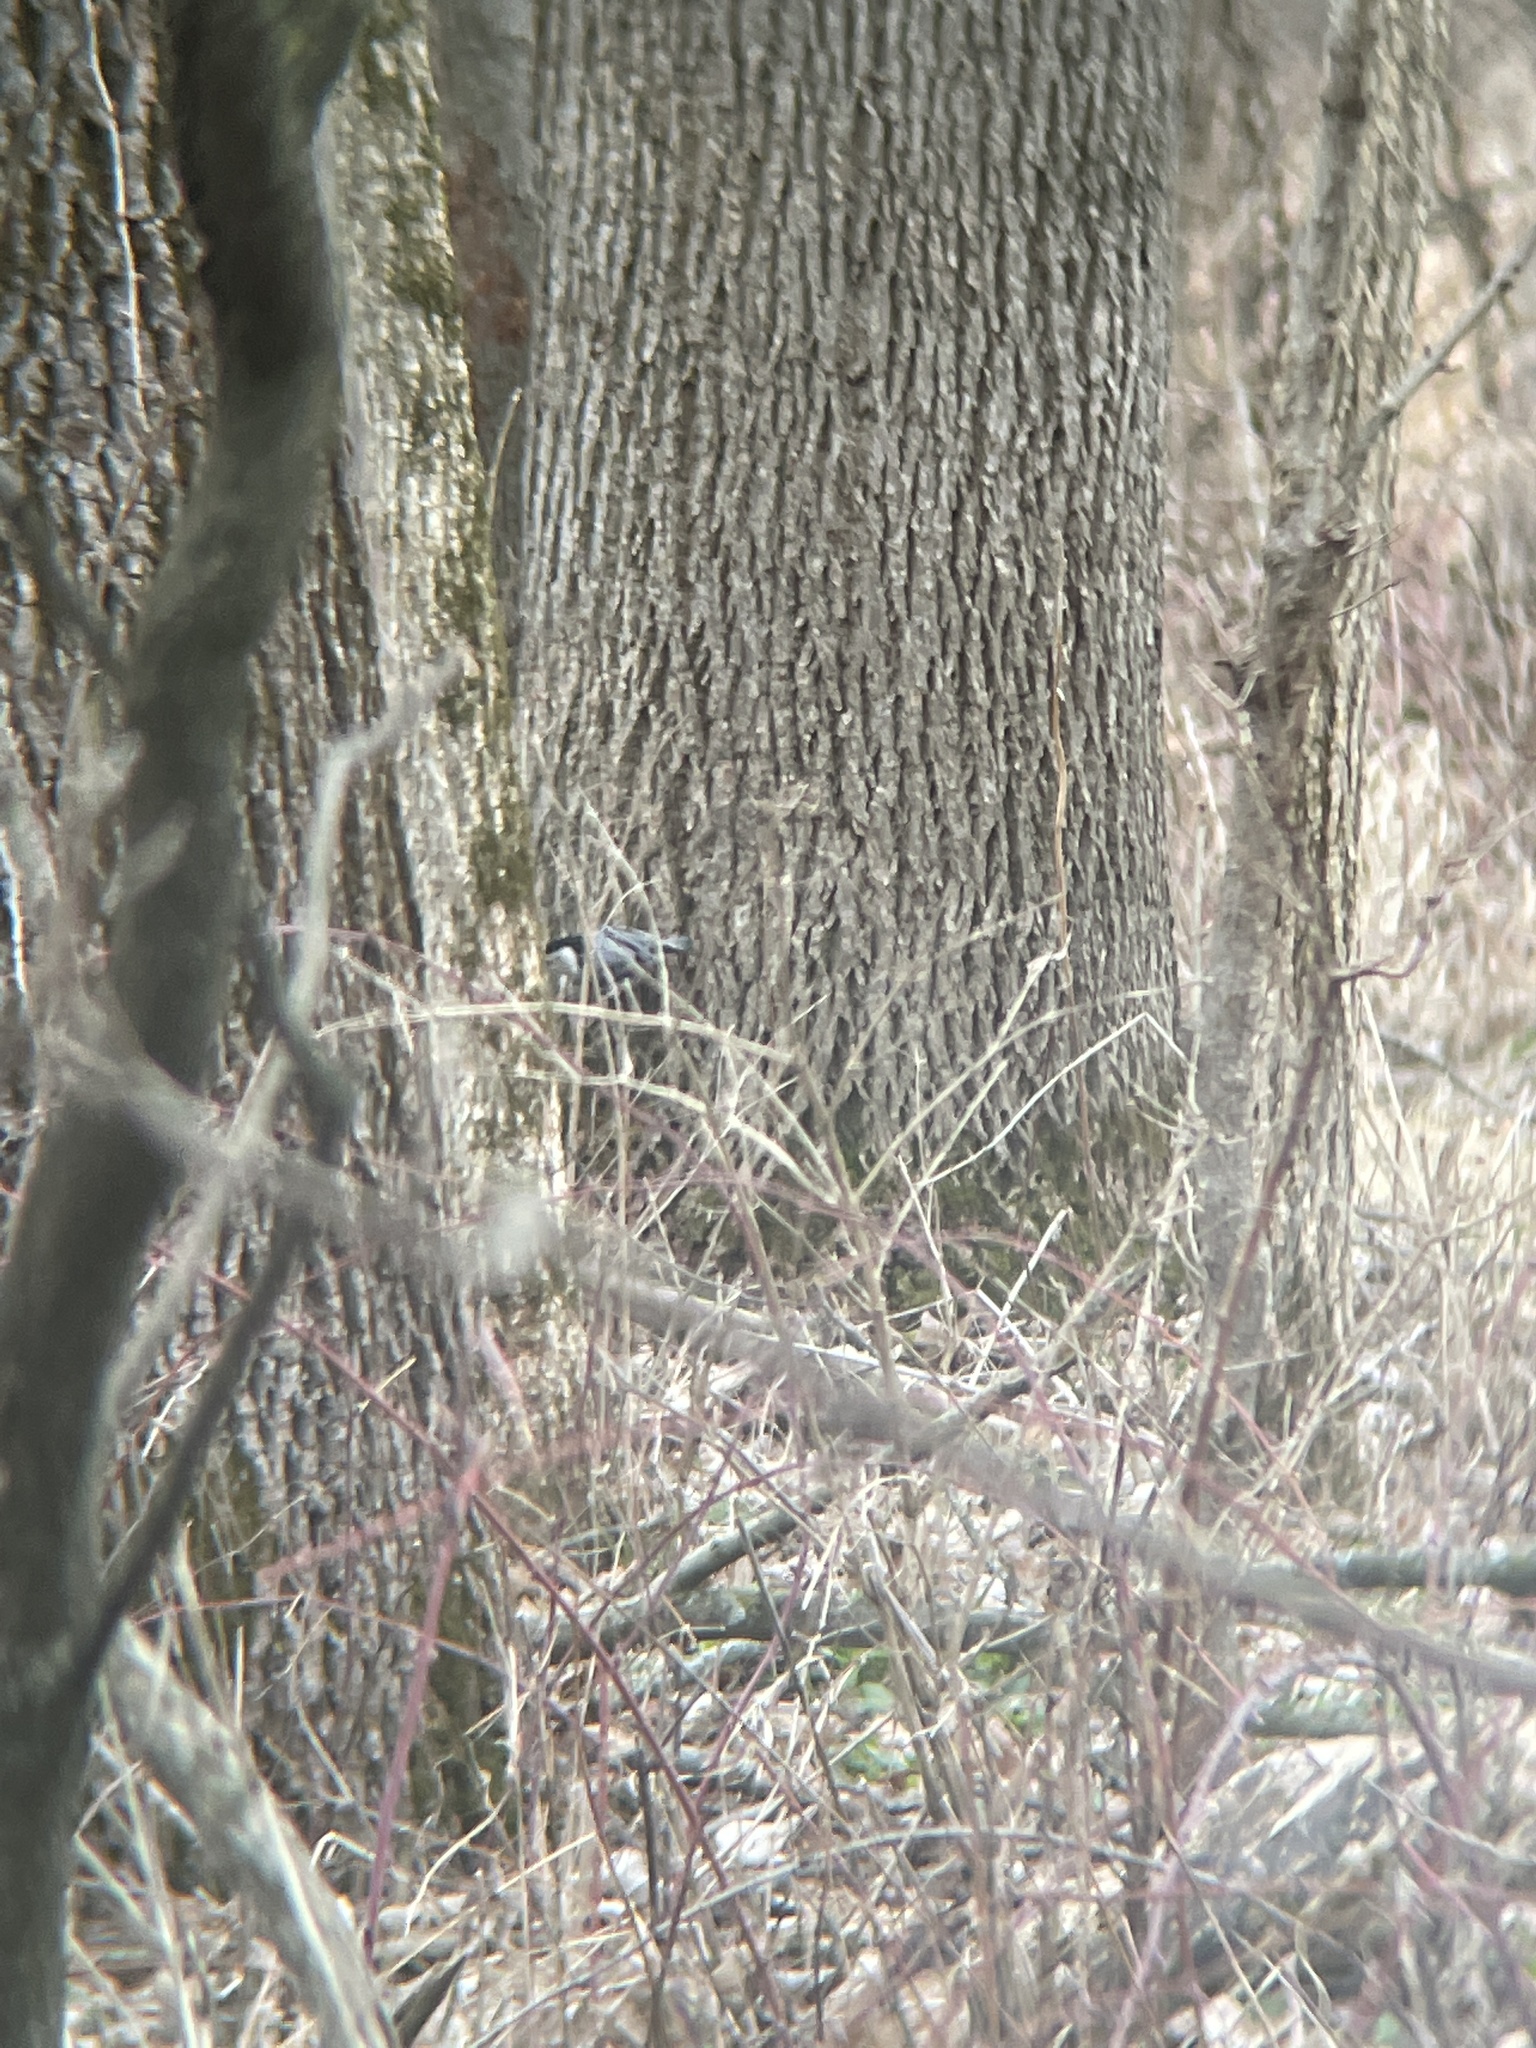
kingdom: Animalia
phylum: Chordata
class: Aves
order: Passeriformes
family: Sittidae
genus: Sitta
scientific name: Sitta carolinensis
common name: White-breasted nuthatch
